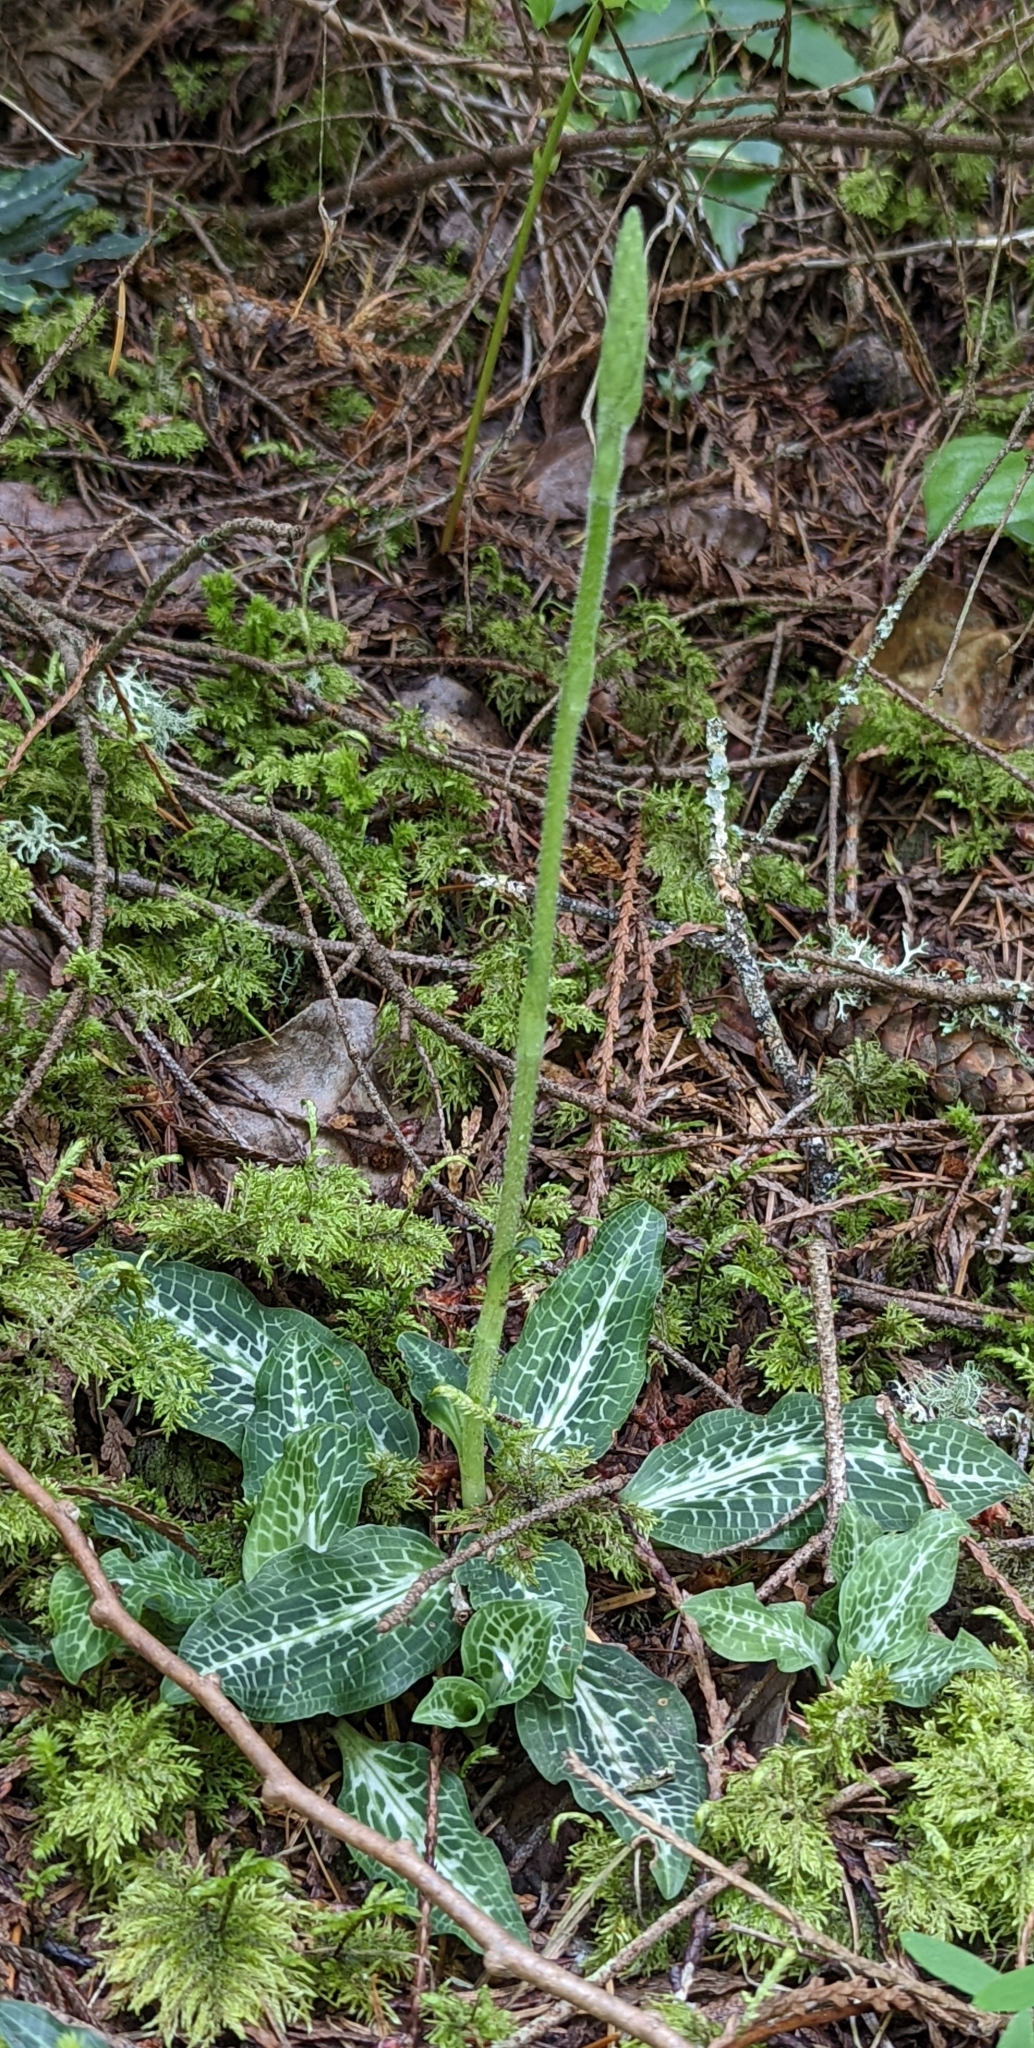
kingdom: Plantae
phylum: Tracheophyta
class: Liliopsida
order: Asparagales
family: Orchidaceae
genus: Goodyera
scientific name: Goodyera oblongifolia
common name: Giant rattlesnake-plantain
